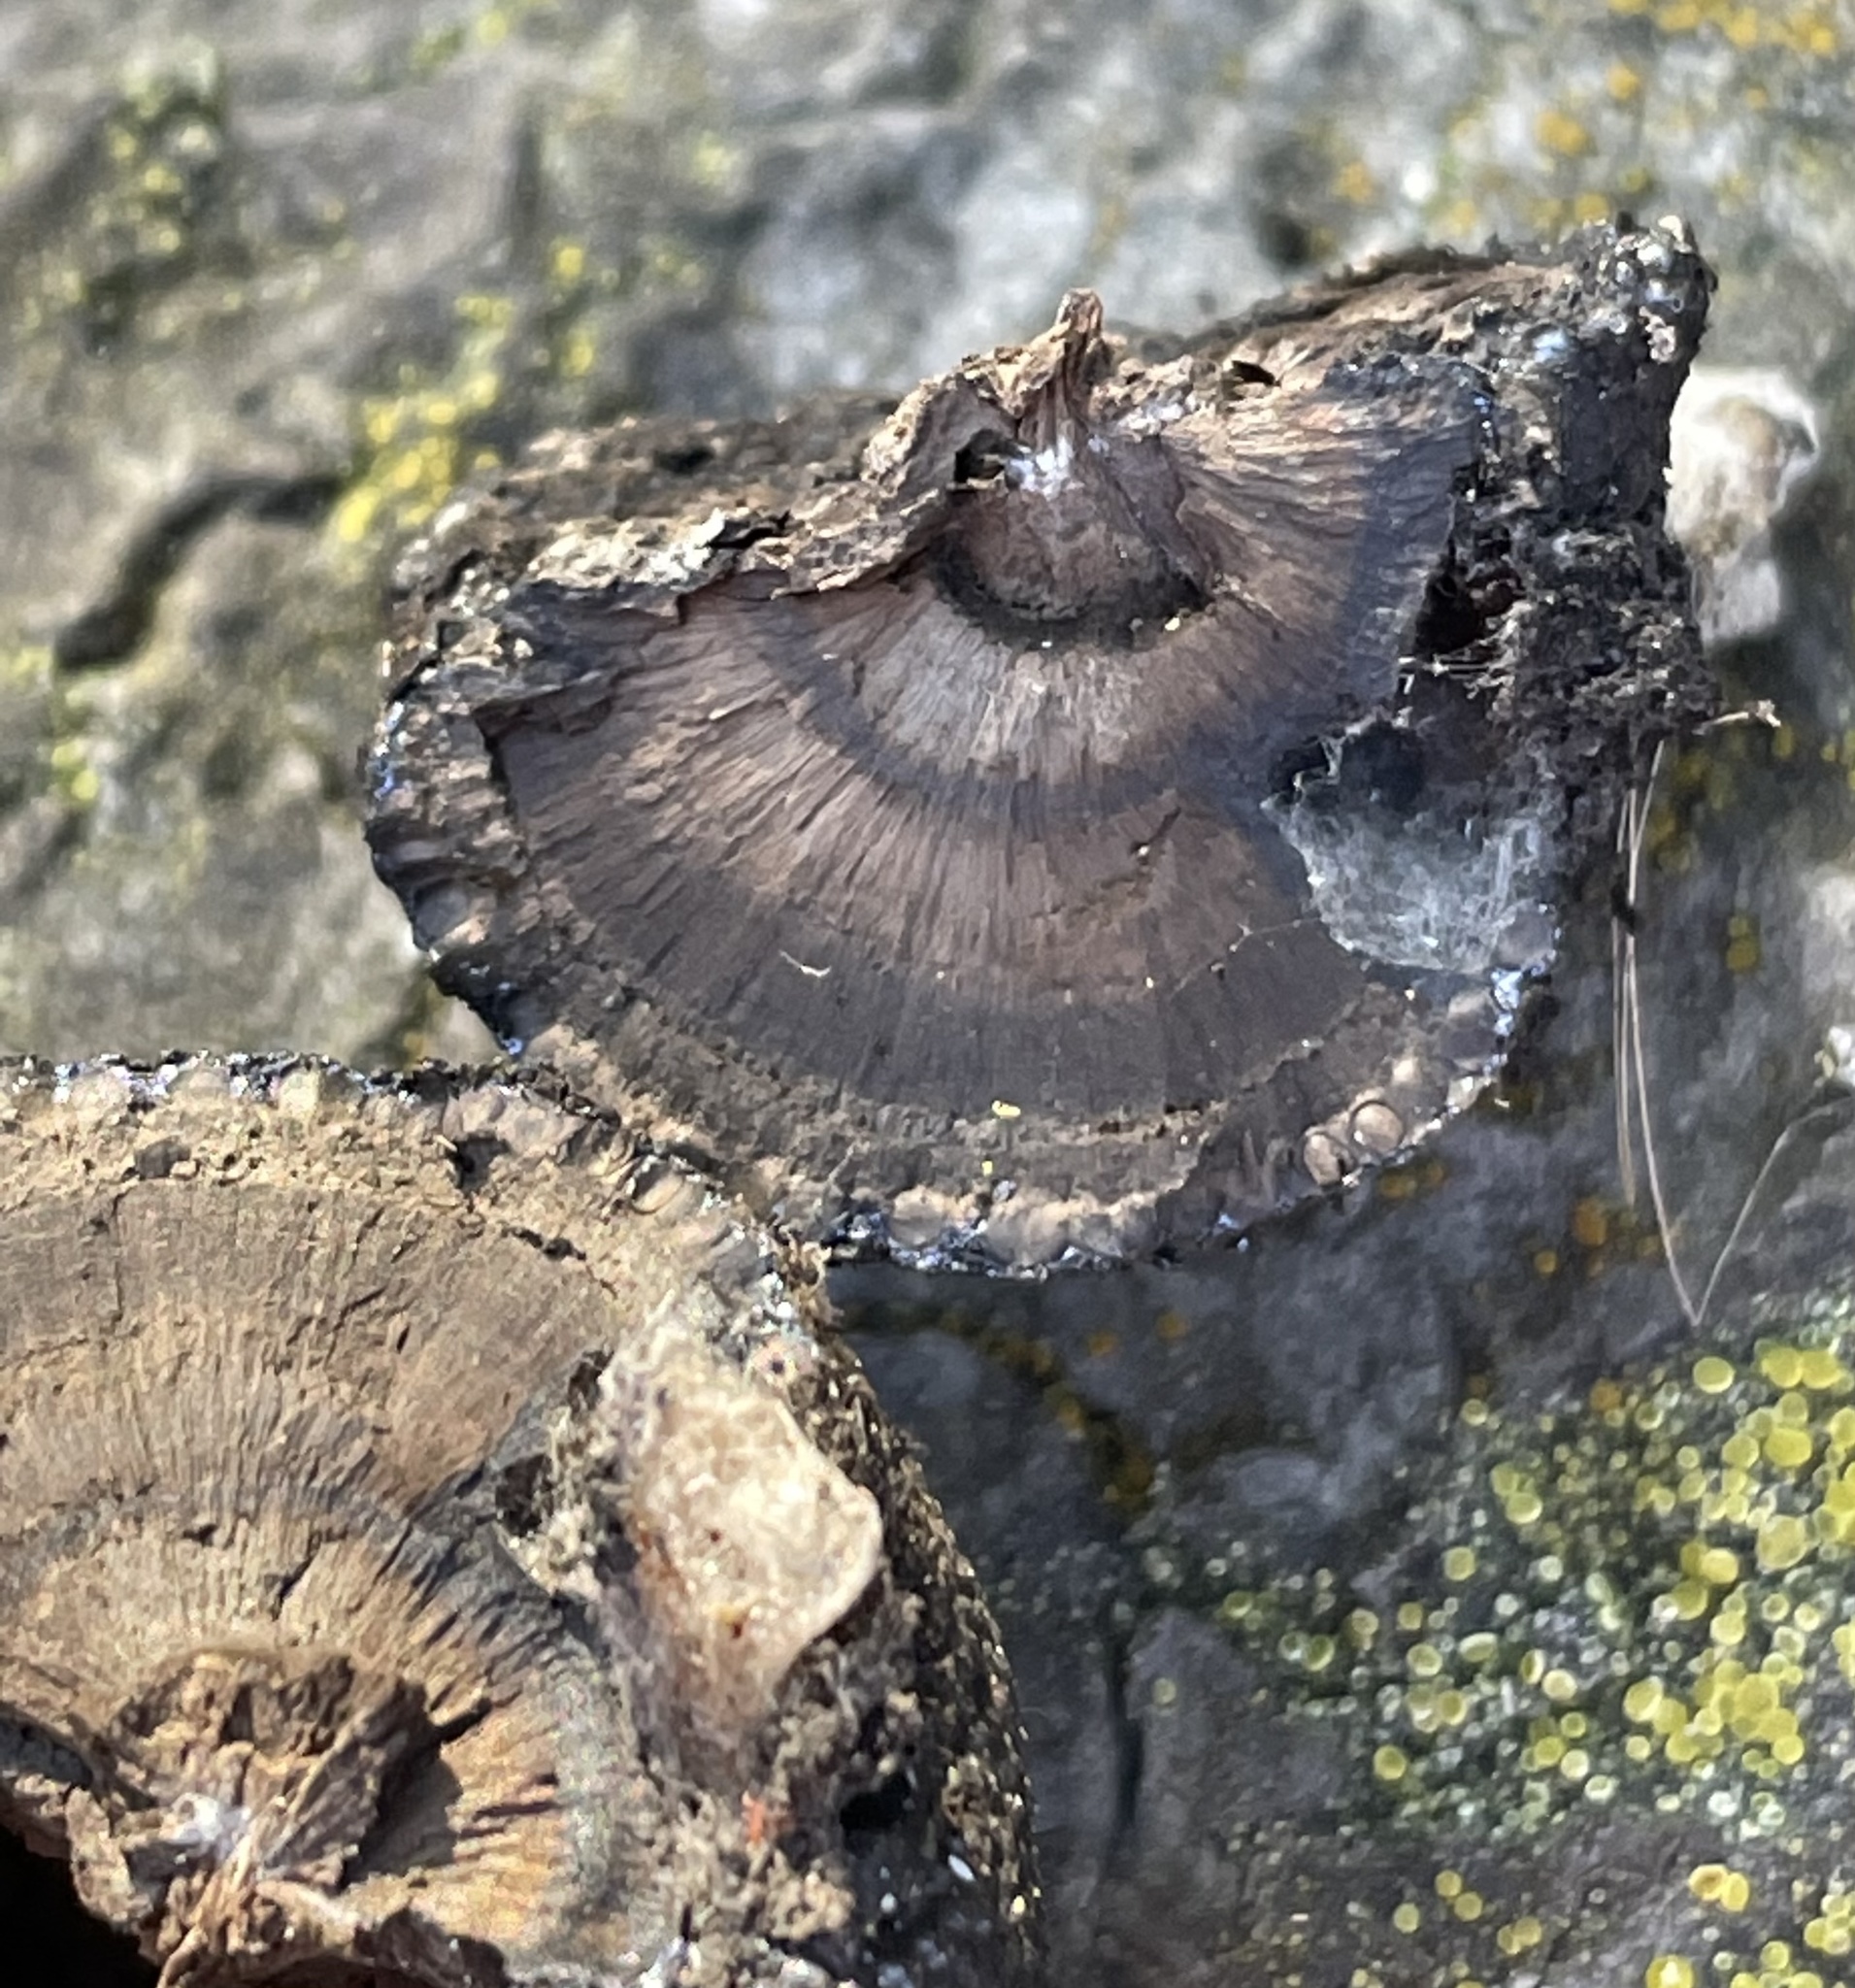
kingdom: Fungi
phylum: Ascomycota
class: Sordariomycetes
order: Xylariales
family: Hypoxylaceae
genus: Annulohypoxylon
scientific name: Annulohypoxylon thouarsianum
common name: Cramp balls
